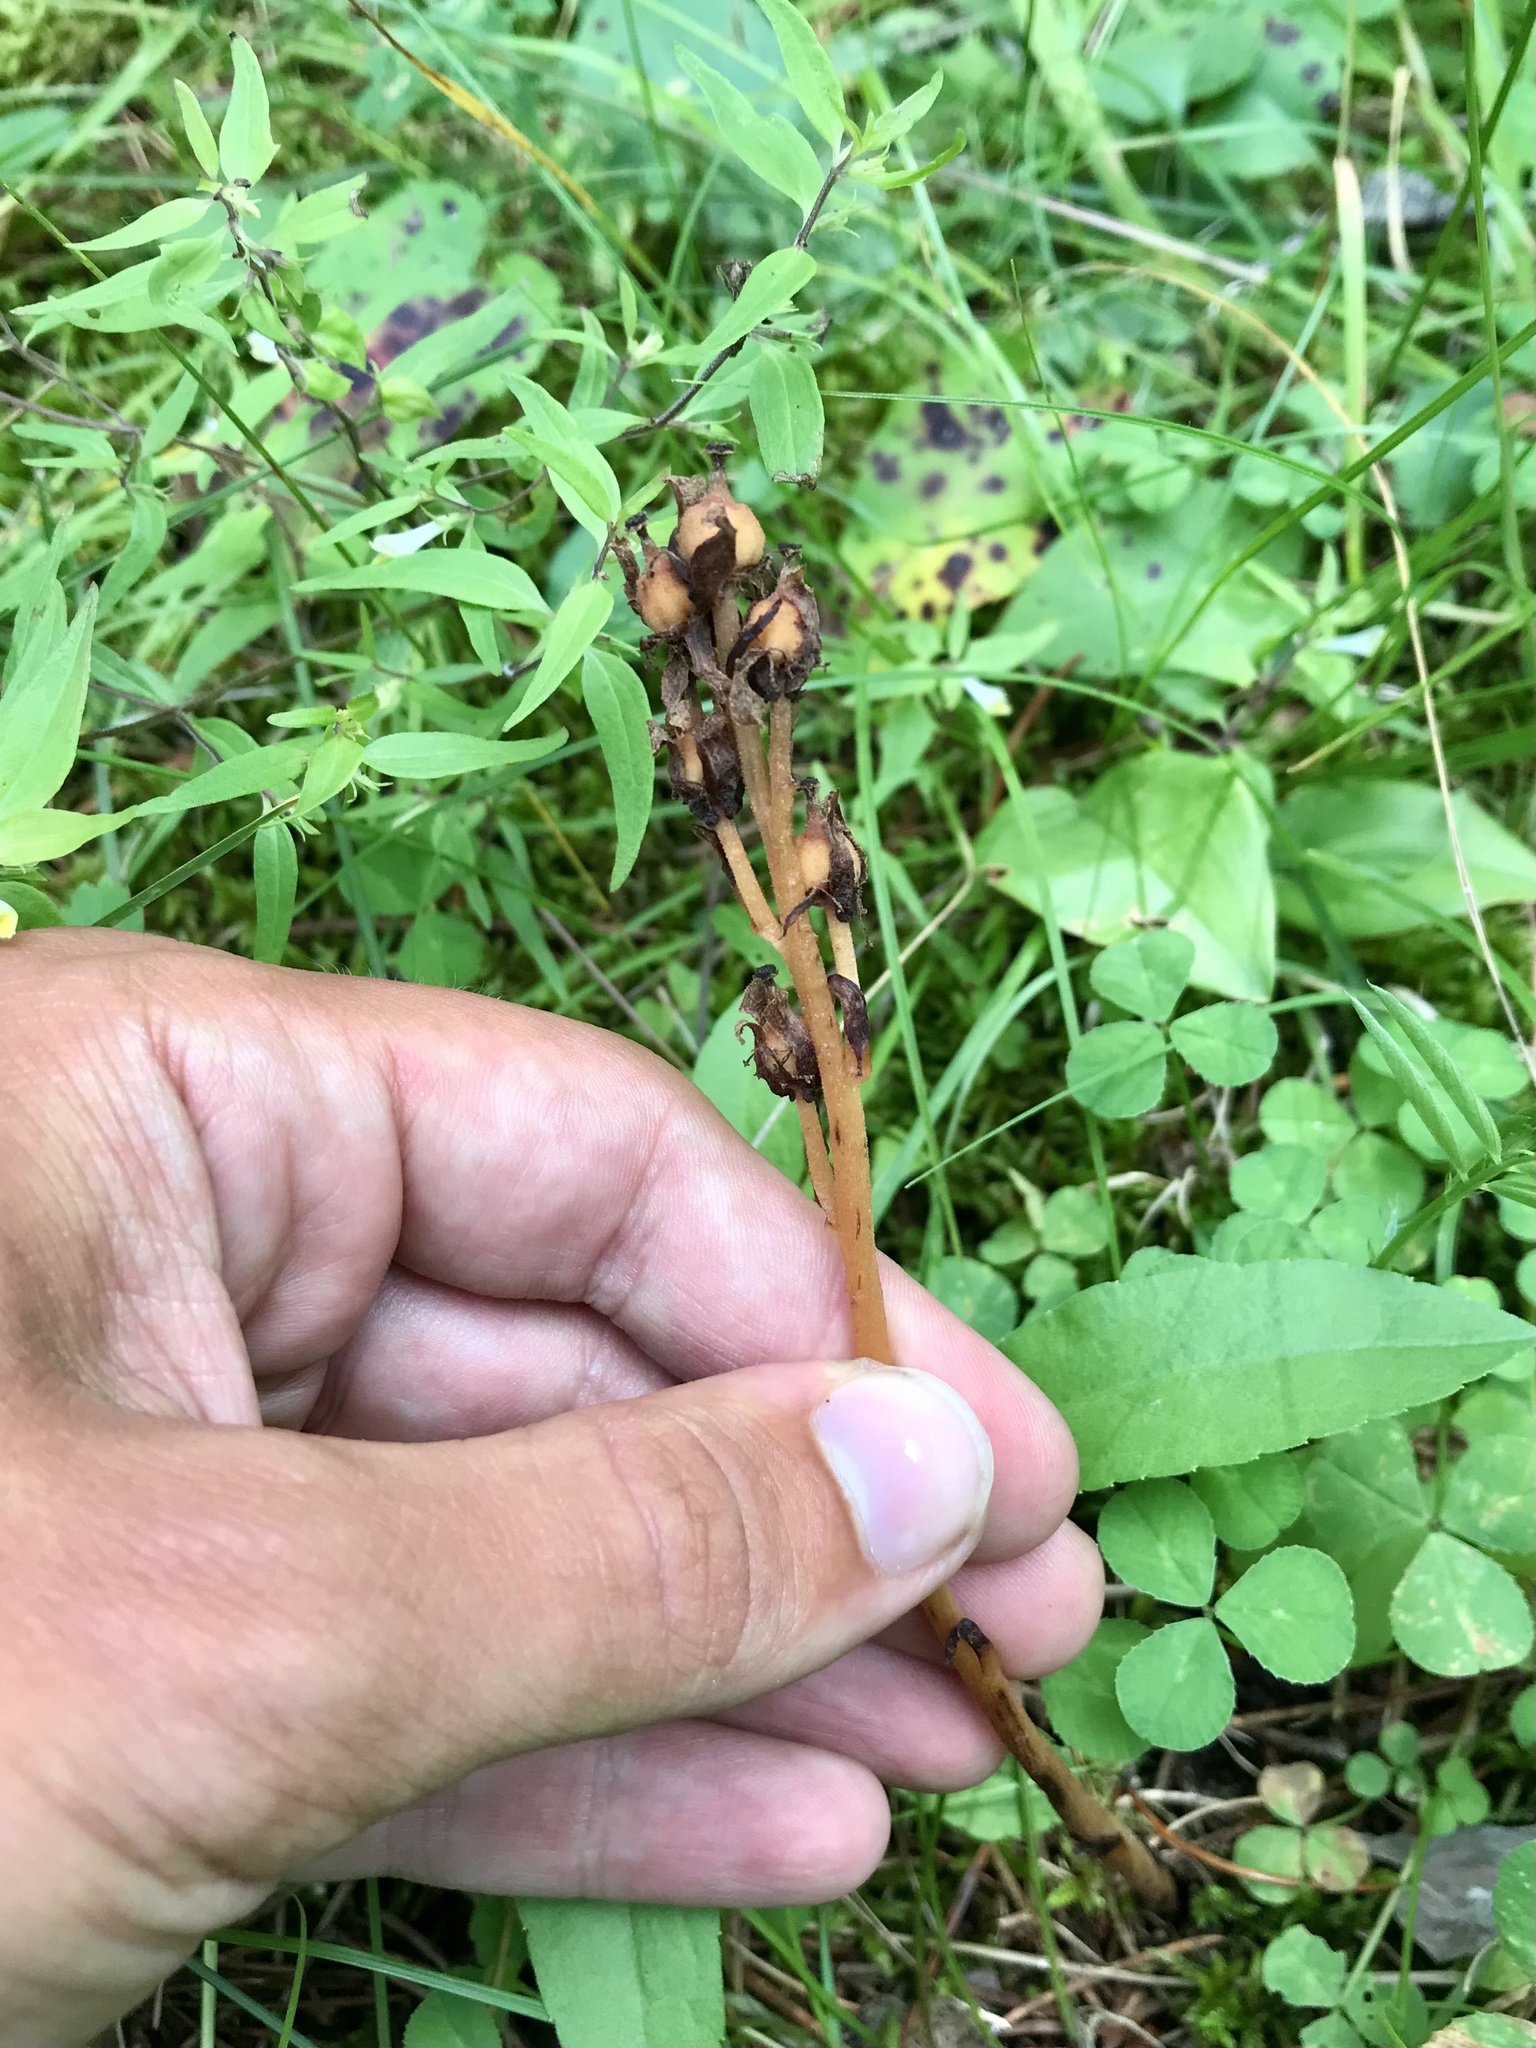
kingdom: Plantae
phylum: Tracheophyta
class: Magnoliopsida
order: Ericales
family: Ericaceae
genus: Hypopitys
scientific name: Hypopitys monotropa
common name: Yellow bird's-nest
